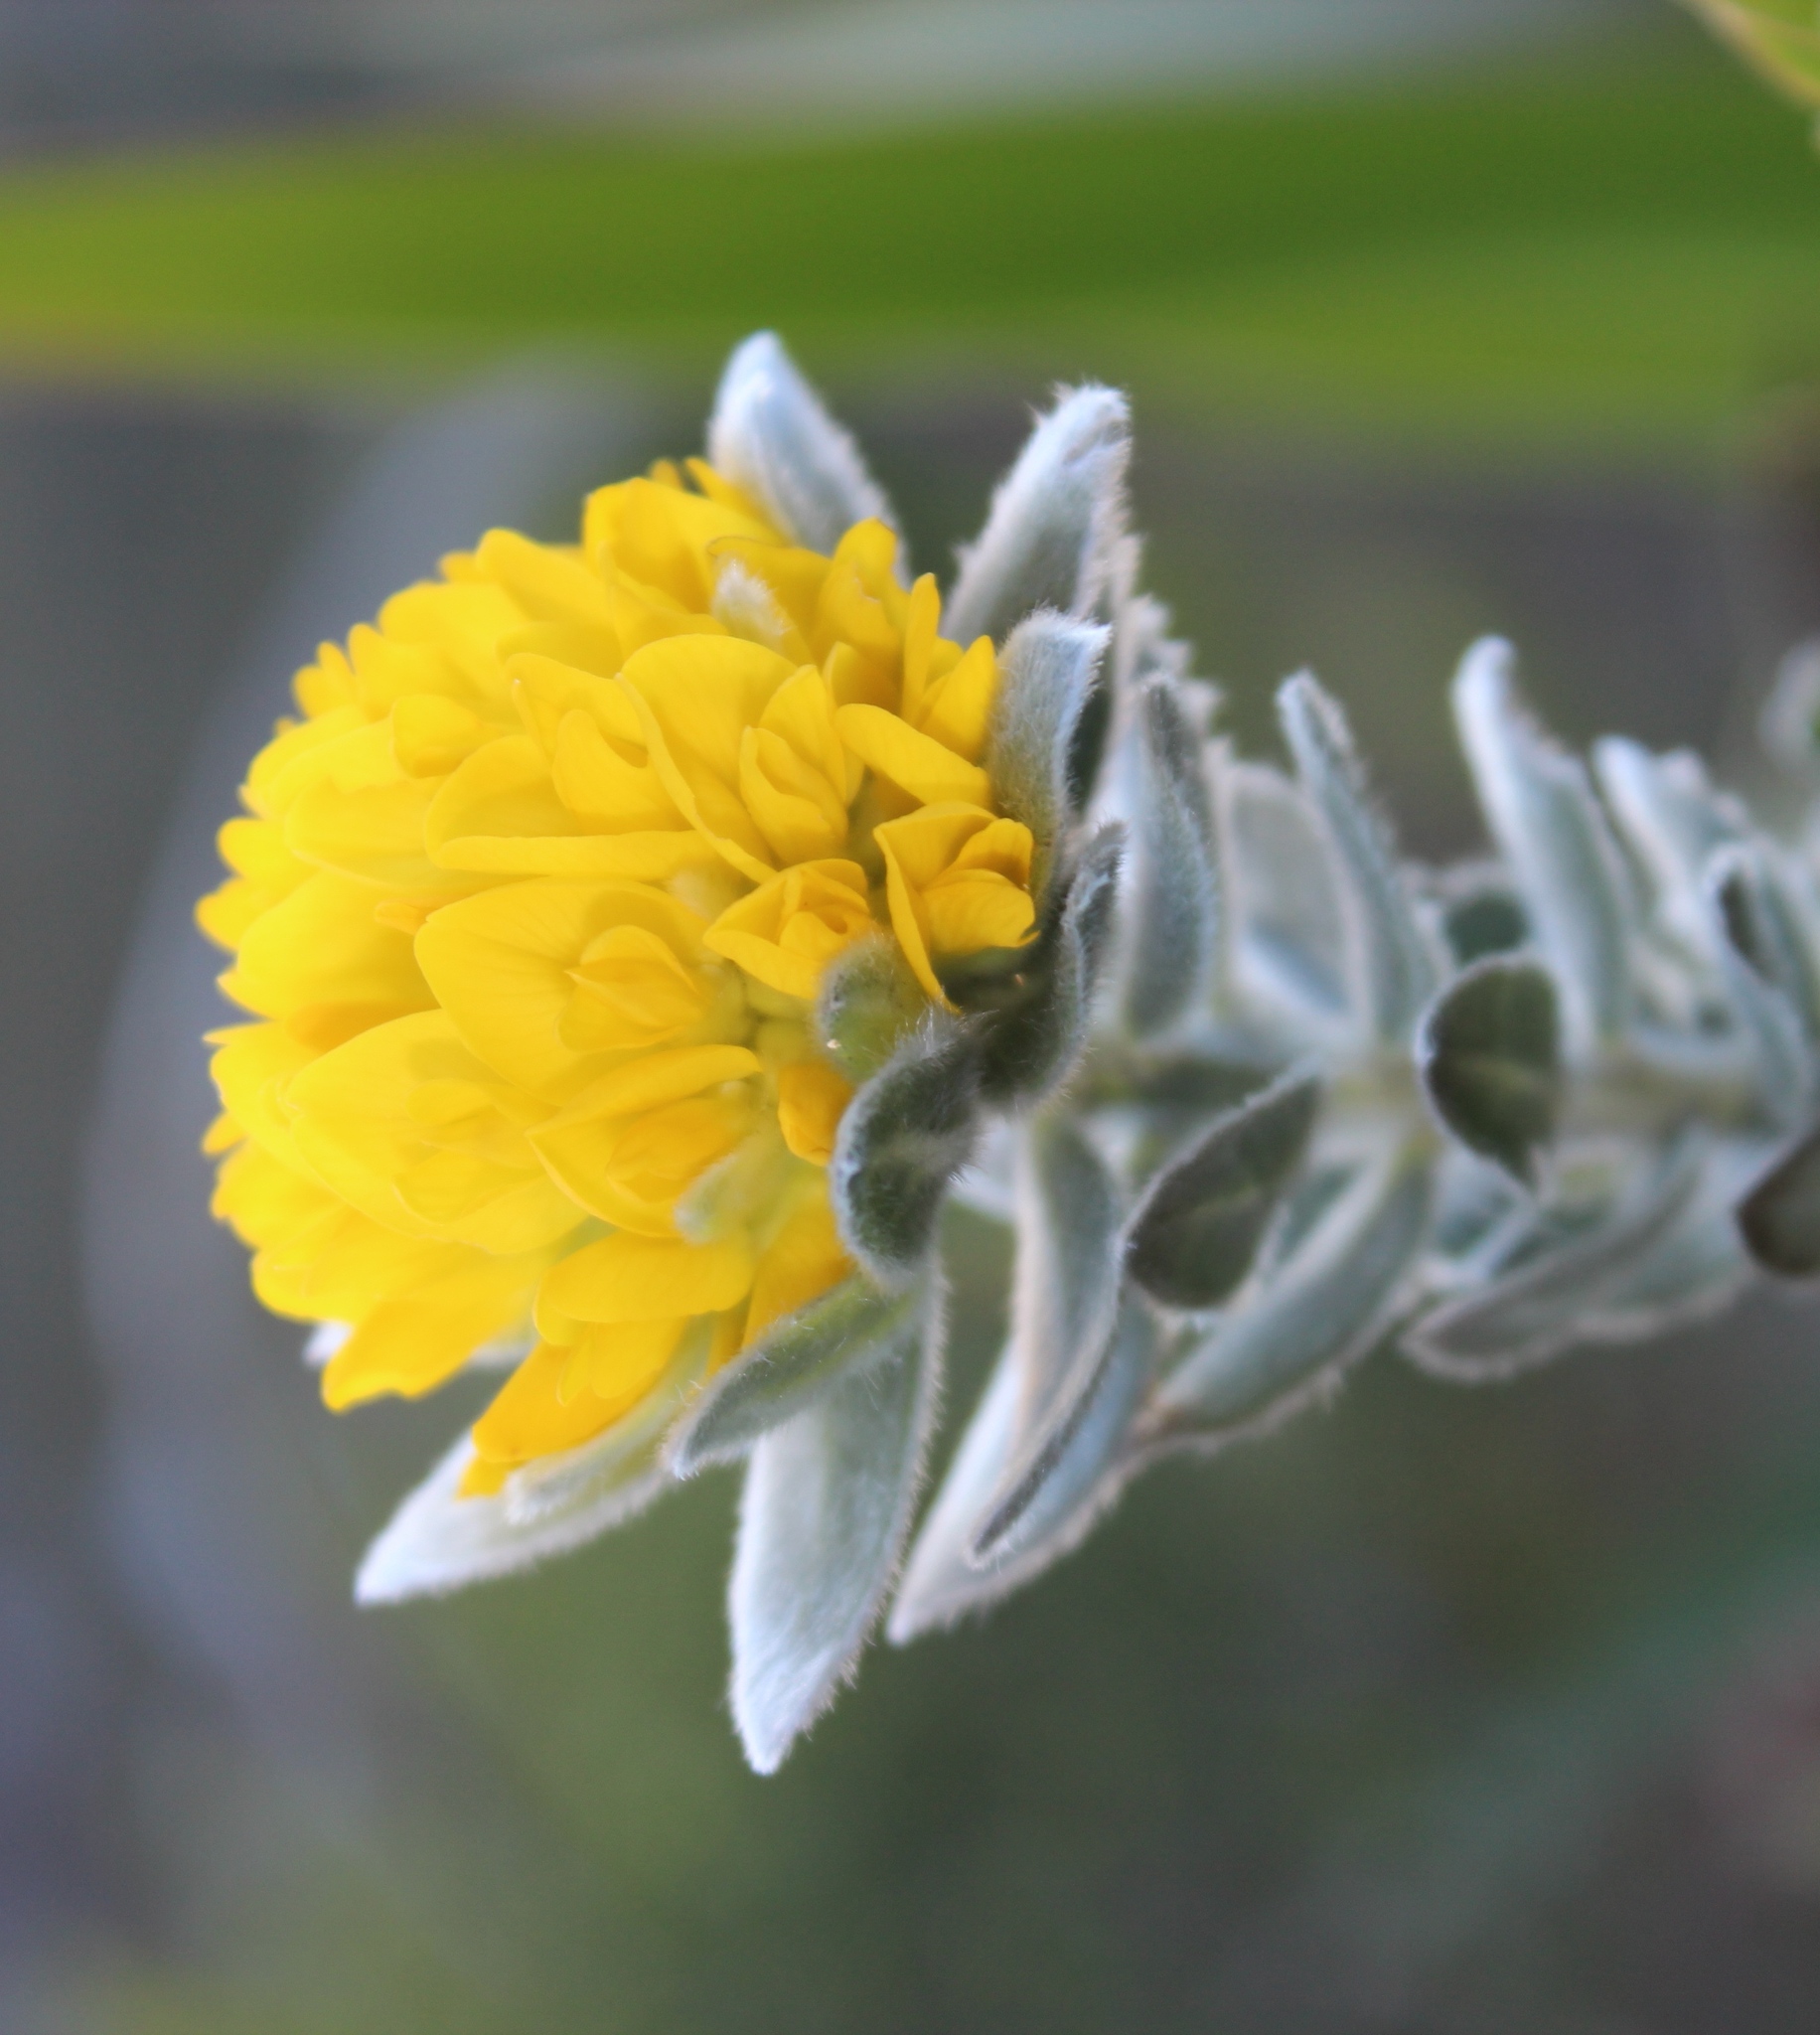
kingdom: Plantae
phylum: Tracheophyta
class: Magnoliopsida
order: Fabales
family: Fabaceae
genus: Xiphotheca
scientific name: Xiphotheca fruticosa
